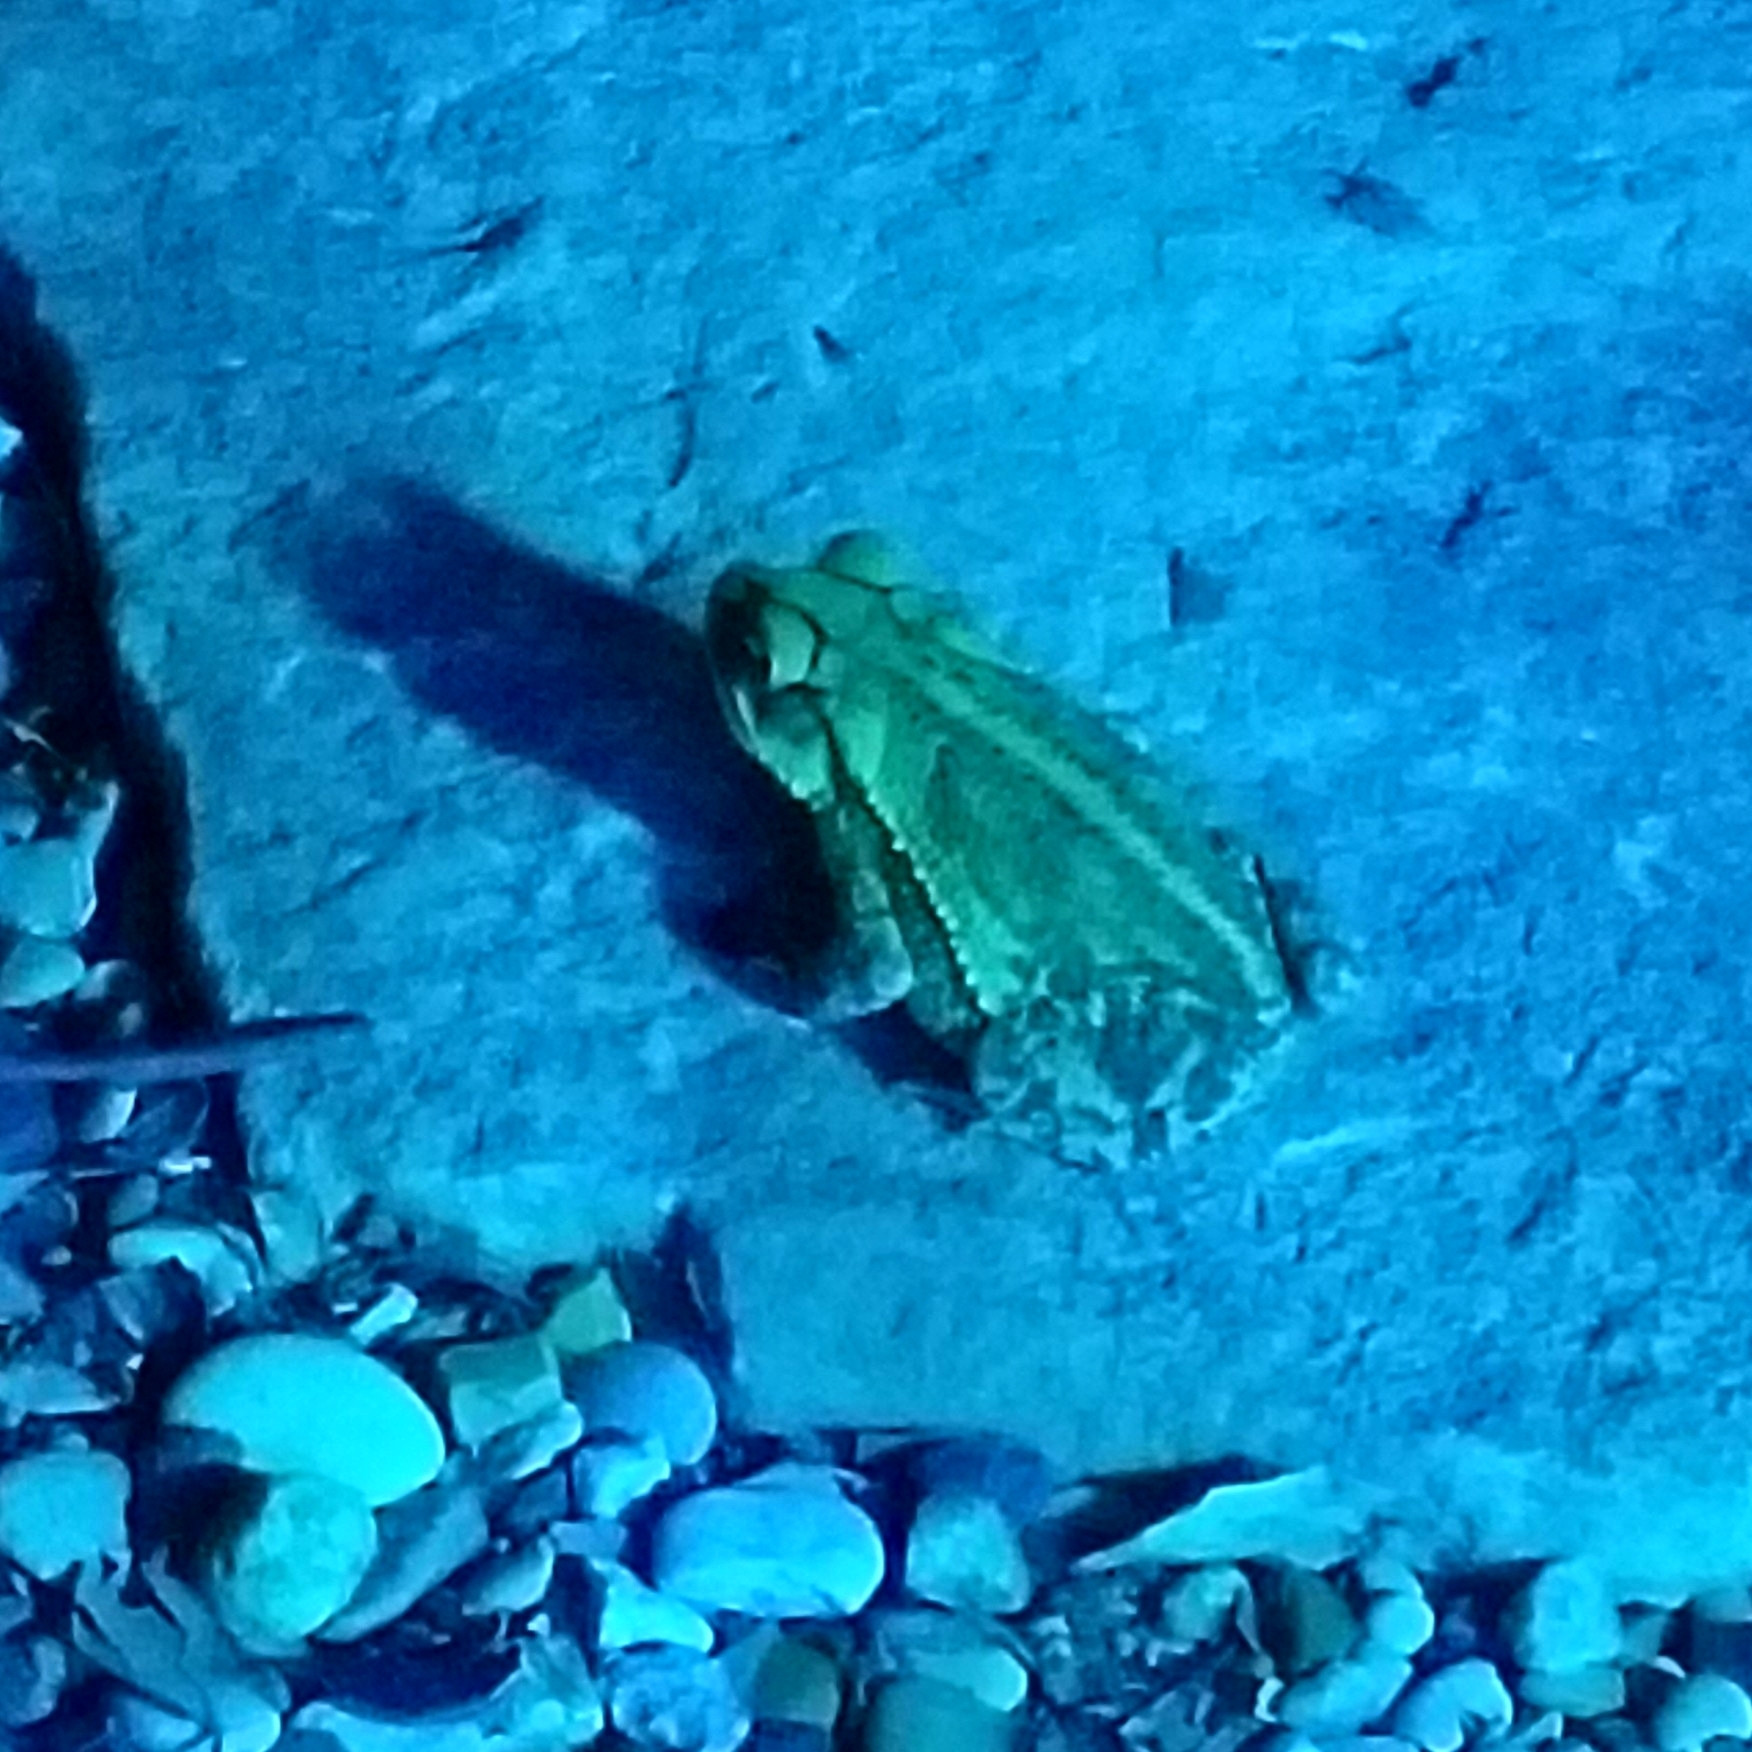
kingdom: Animalia
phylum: Chordata
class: Amphibia
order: Anura
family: Bufonidae
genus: Incilius
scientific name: Incilius nebulifer
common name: Gulf coast toad
